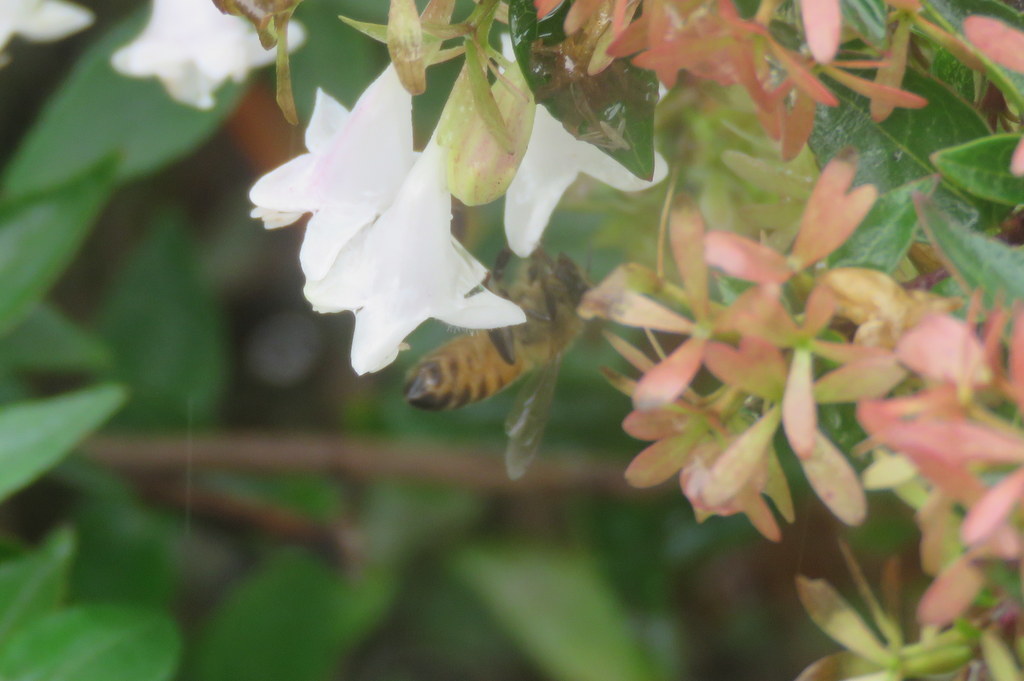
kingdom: Animalia
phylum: Arthropoda
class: Insecta
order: Hymenoptera
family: Apidae
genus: Apis
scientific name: Apis mellifera
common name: Honey bee
